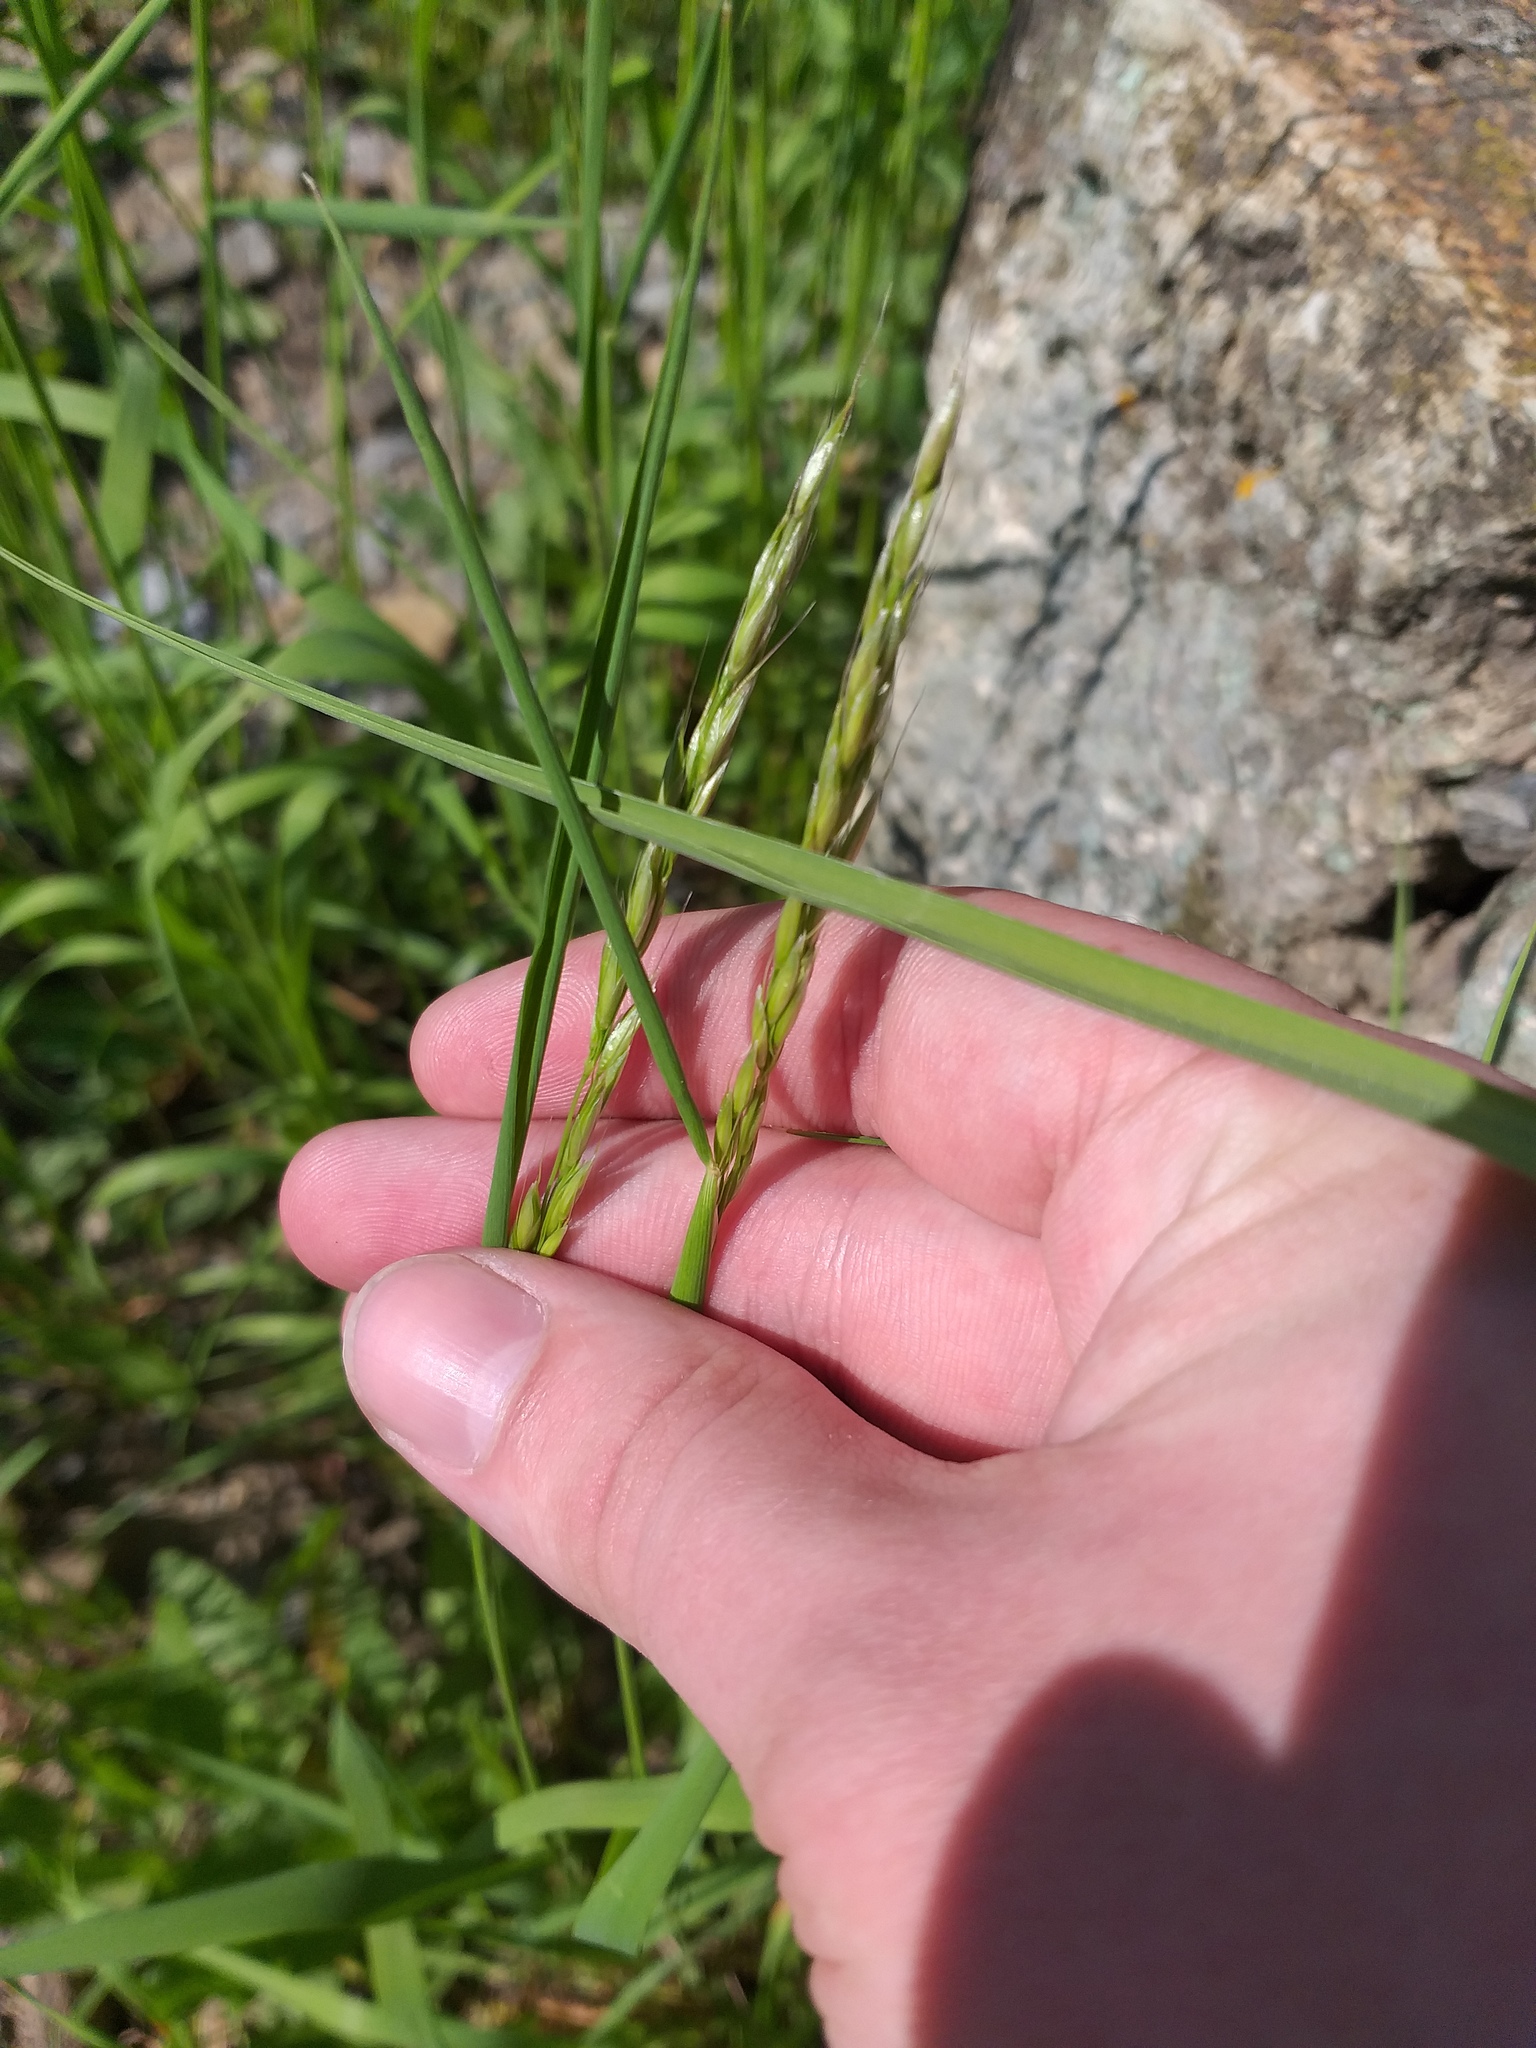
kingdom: Plantae
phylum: Tracheophyta
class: Liliopsida
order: Poales
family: Poaceae
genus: Arrhenatherum
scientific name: Arrhenatherum elatius
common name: Tall oatgrass
